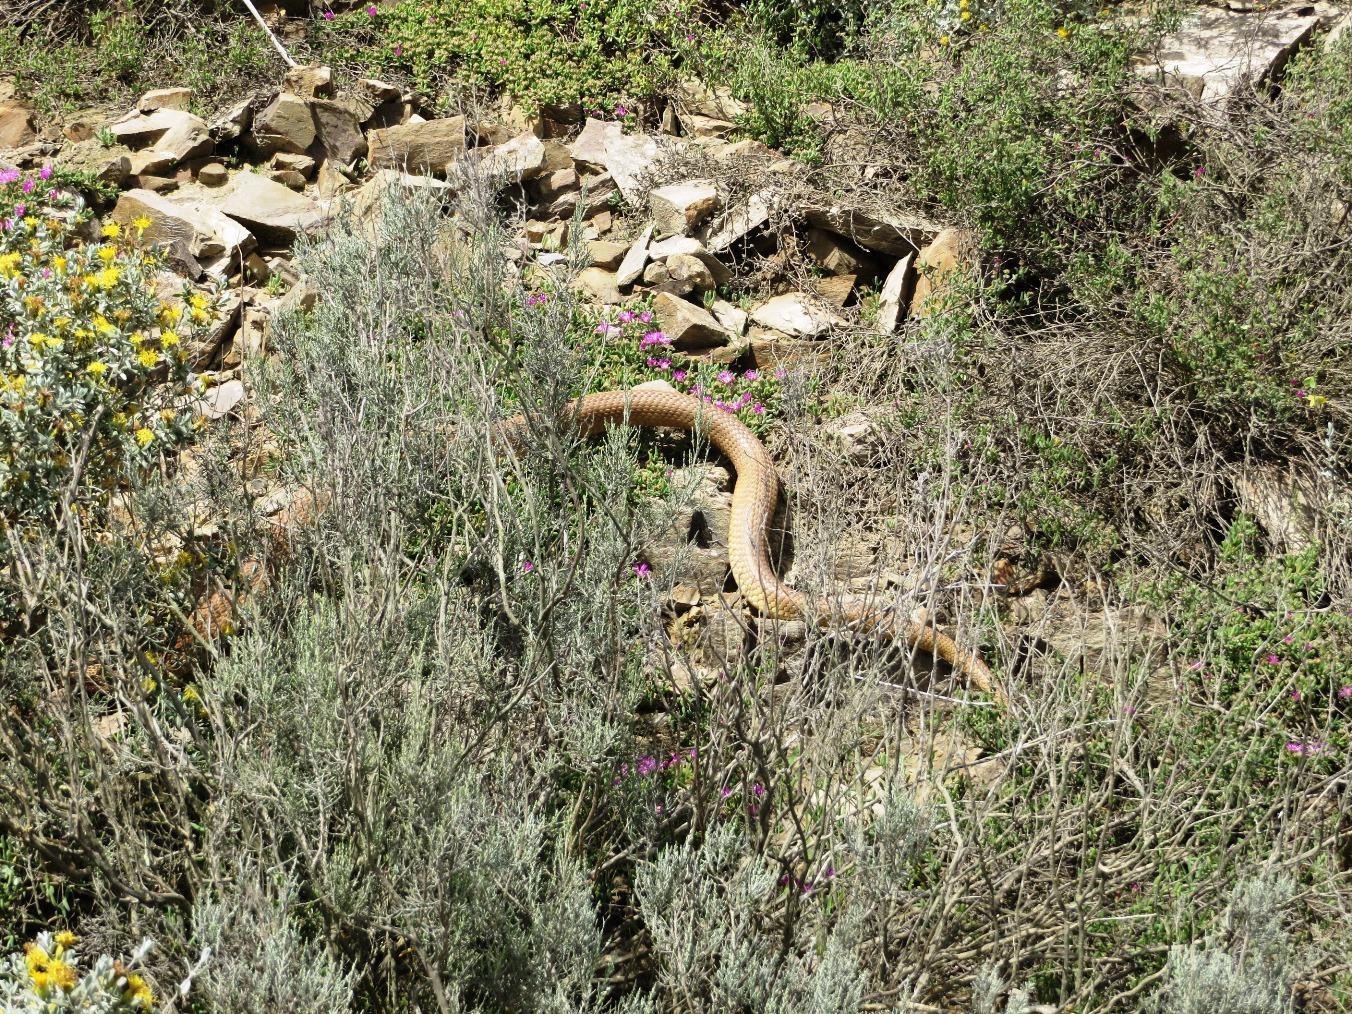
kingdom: Animalia
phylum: Chordata
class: Squamata
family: Elapidae
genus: Naja
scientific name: Naja nivea
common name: Cape cobra
